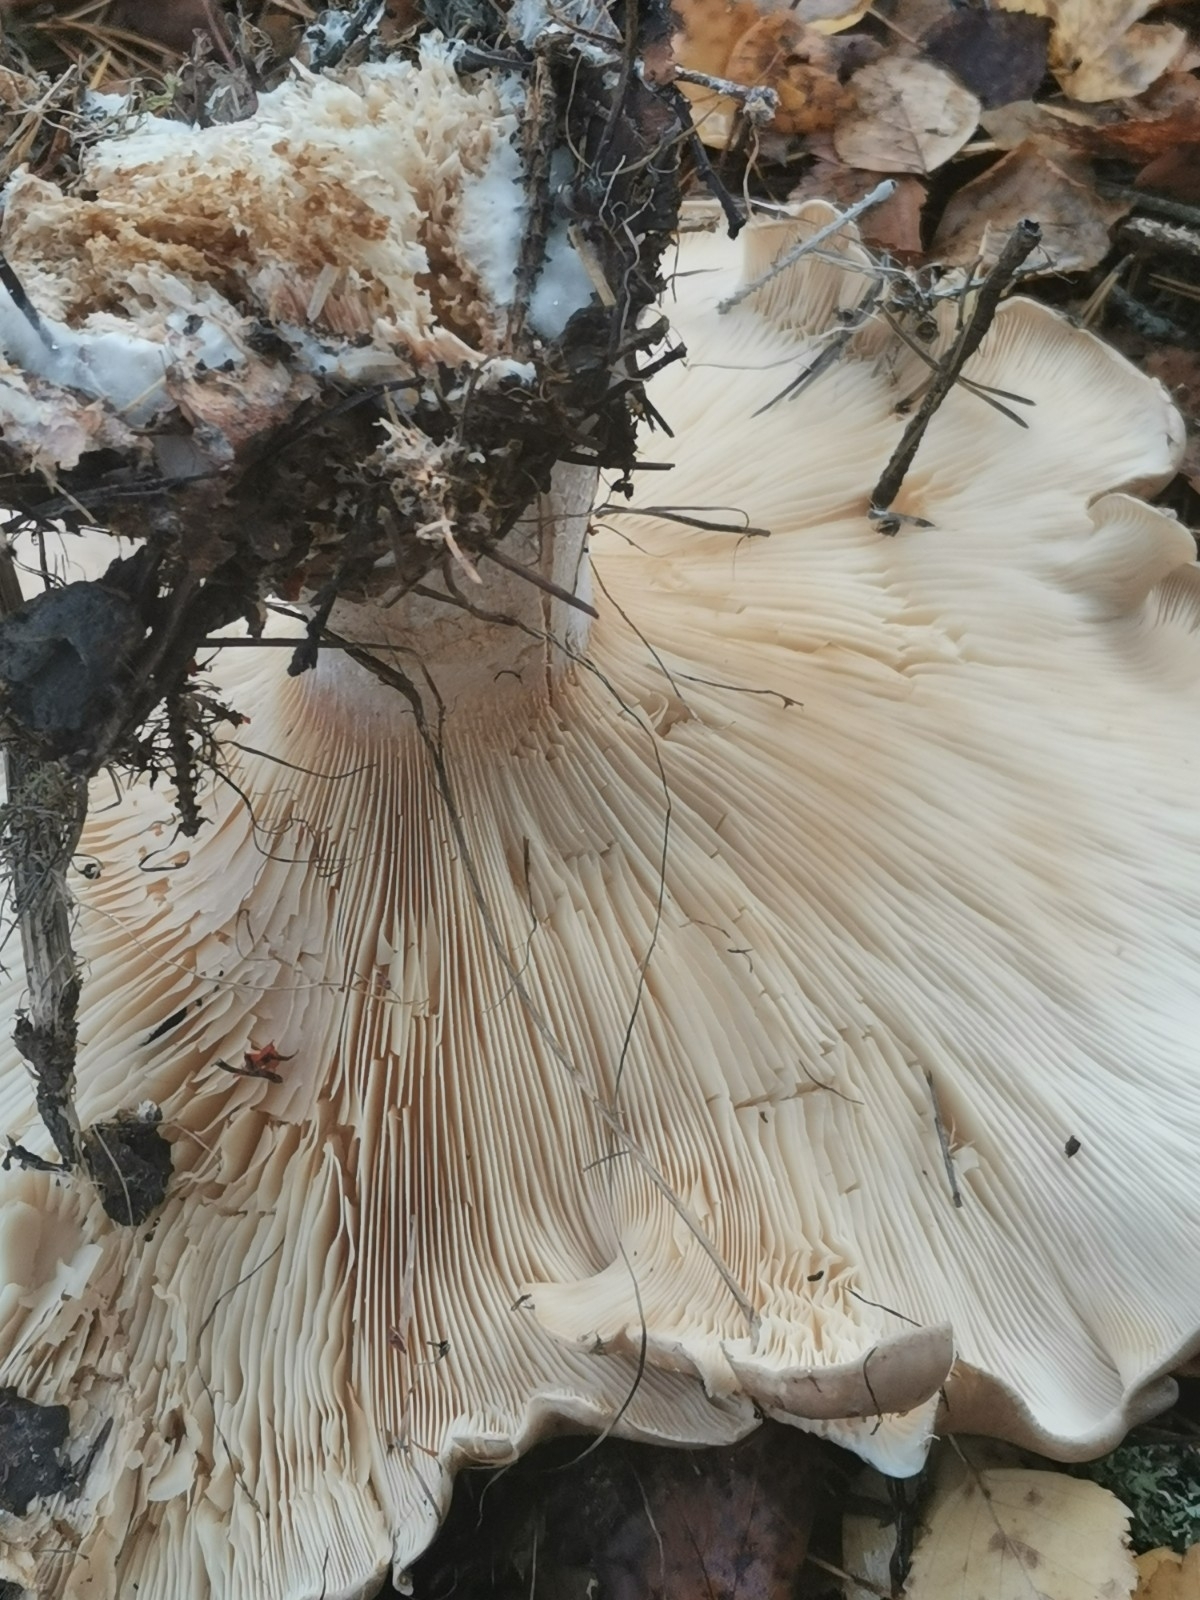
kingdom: Fungi
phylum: Basidiomycota
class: Agaricomycetes
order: Agaricales
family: Tricholomataceae
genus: Clitocybe
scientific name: Clitocybe nebularis
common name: Clouded agaric
